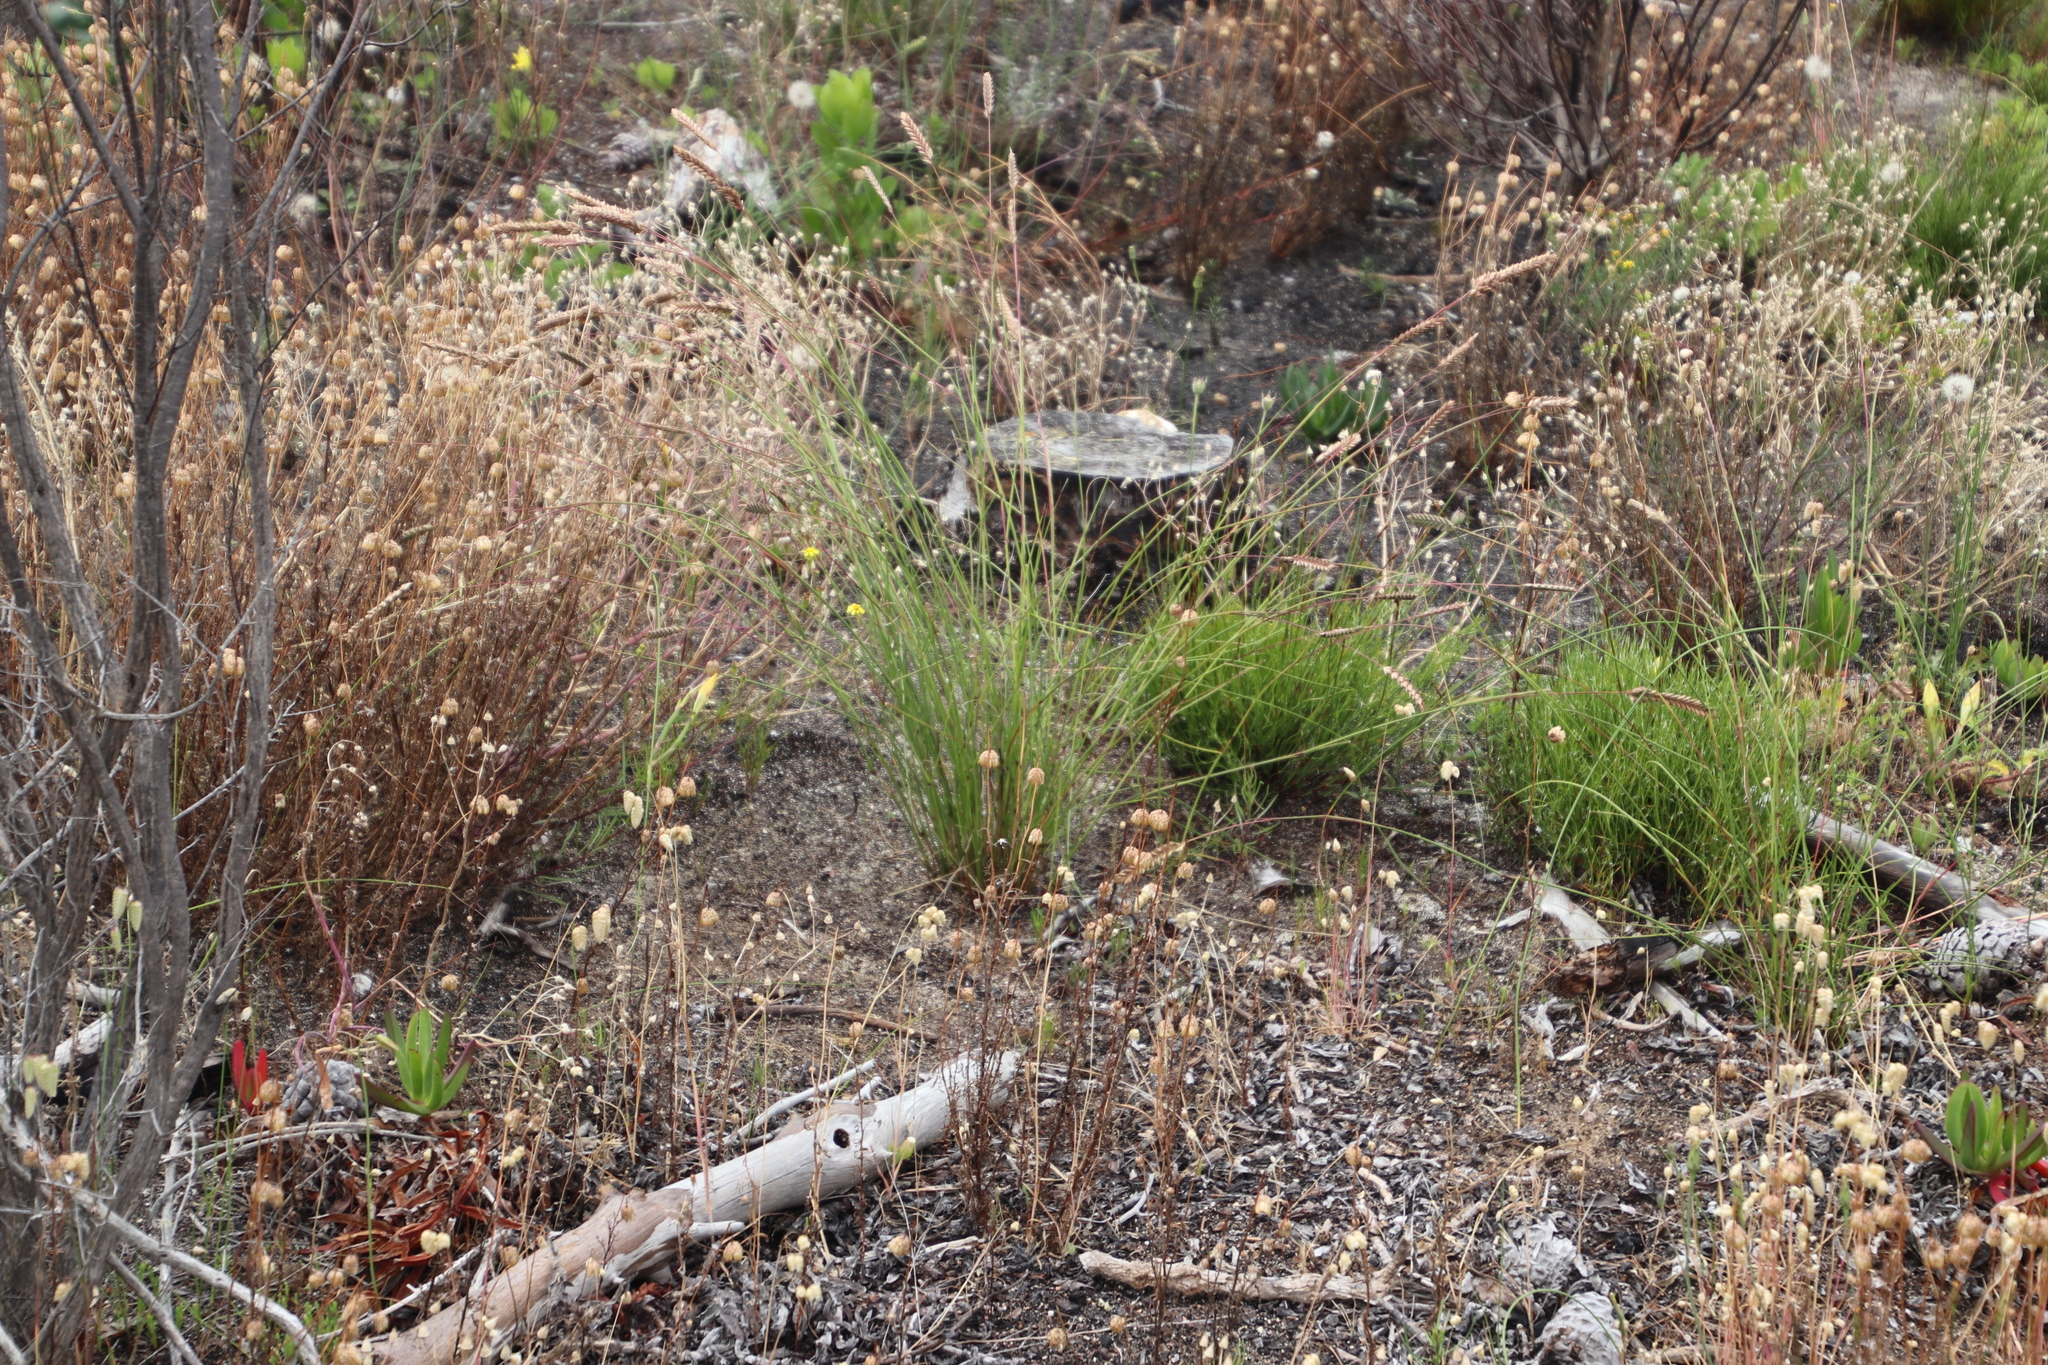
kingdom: Plantae
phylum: Tracheophyta
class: Liliopsida
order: Poales
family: Poaceae
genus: Tribolium
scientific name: Tribolium uniolae
